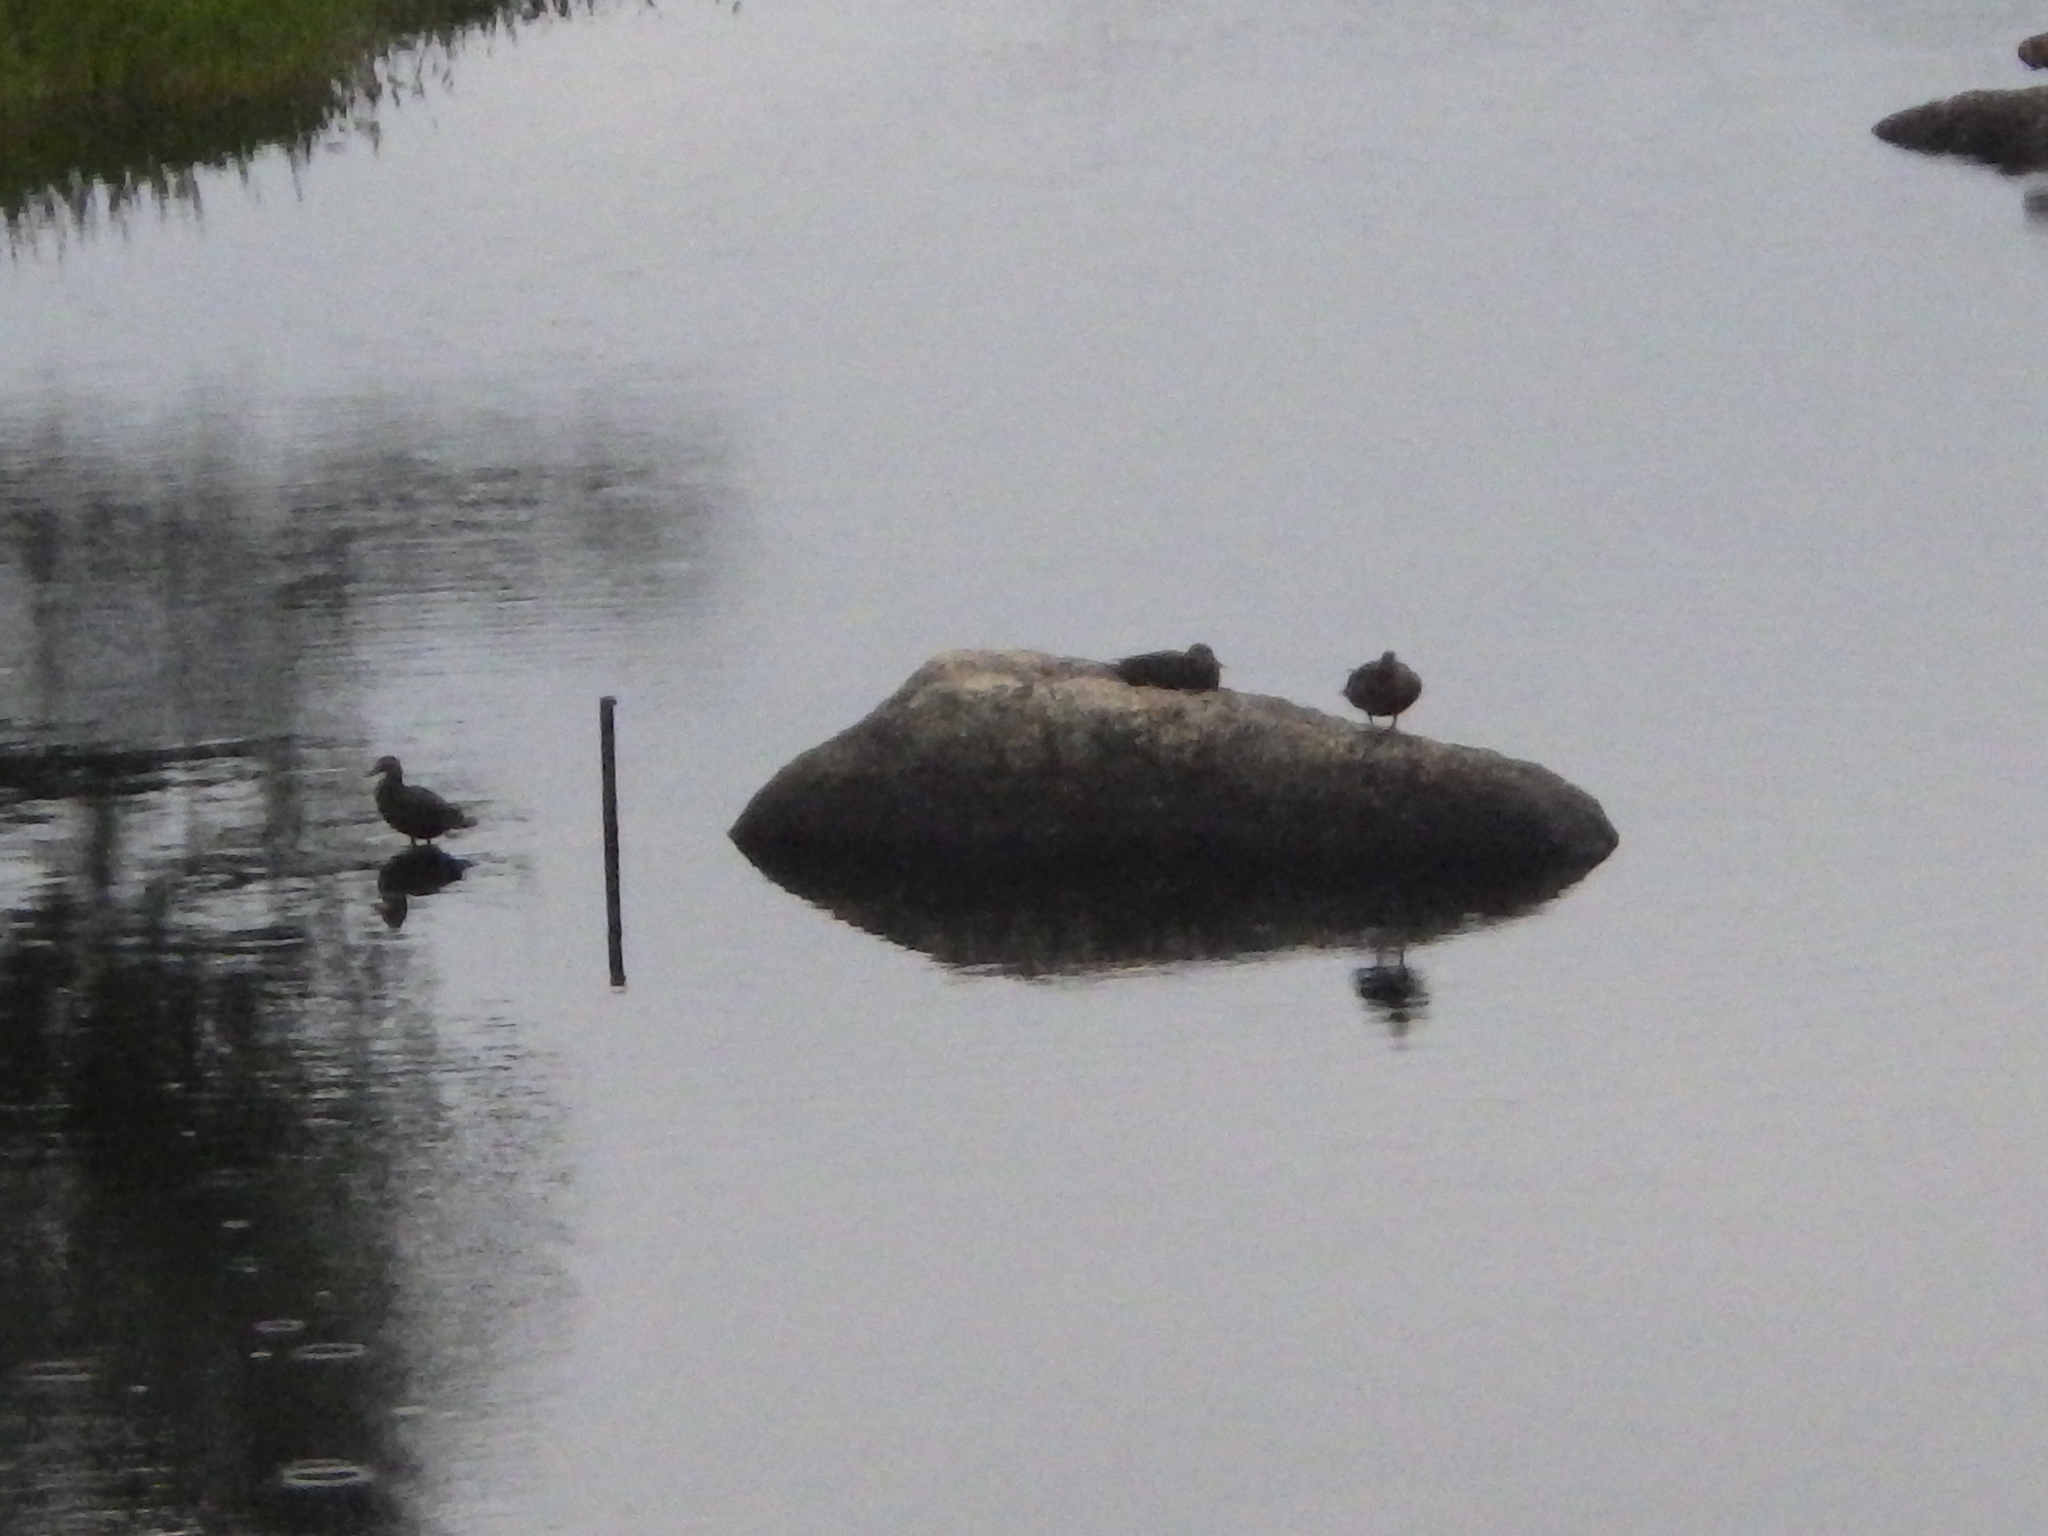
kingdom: Animalia
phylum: Chordata
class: Aves
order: Anseriformes
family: Anatidae
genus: Anas
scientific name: Anas rubripes
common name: American black duck
